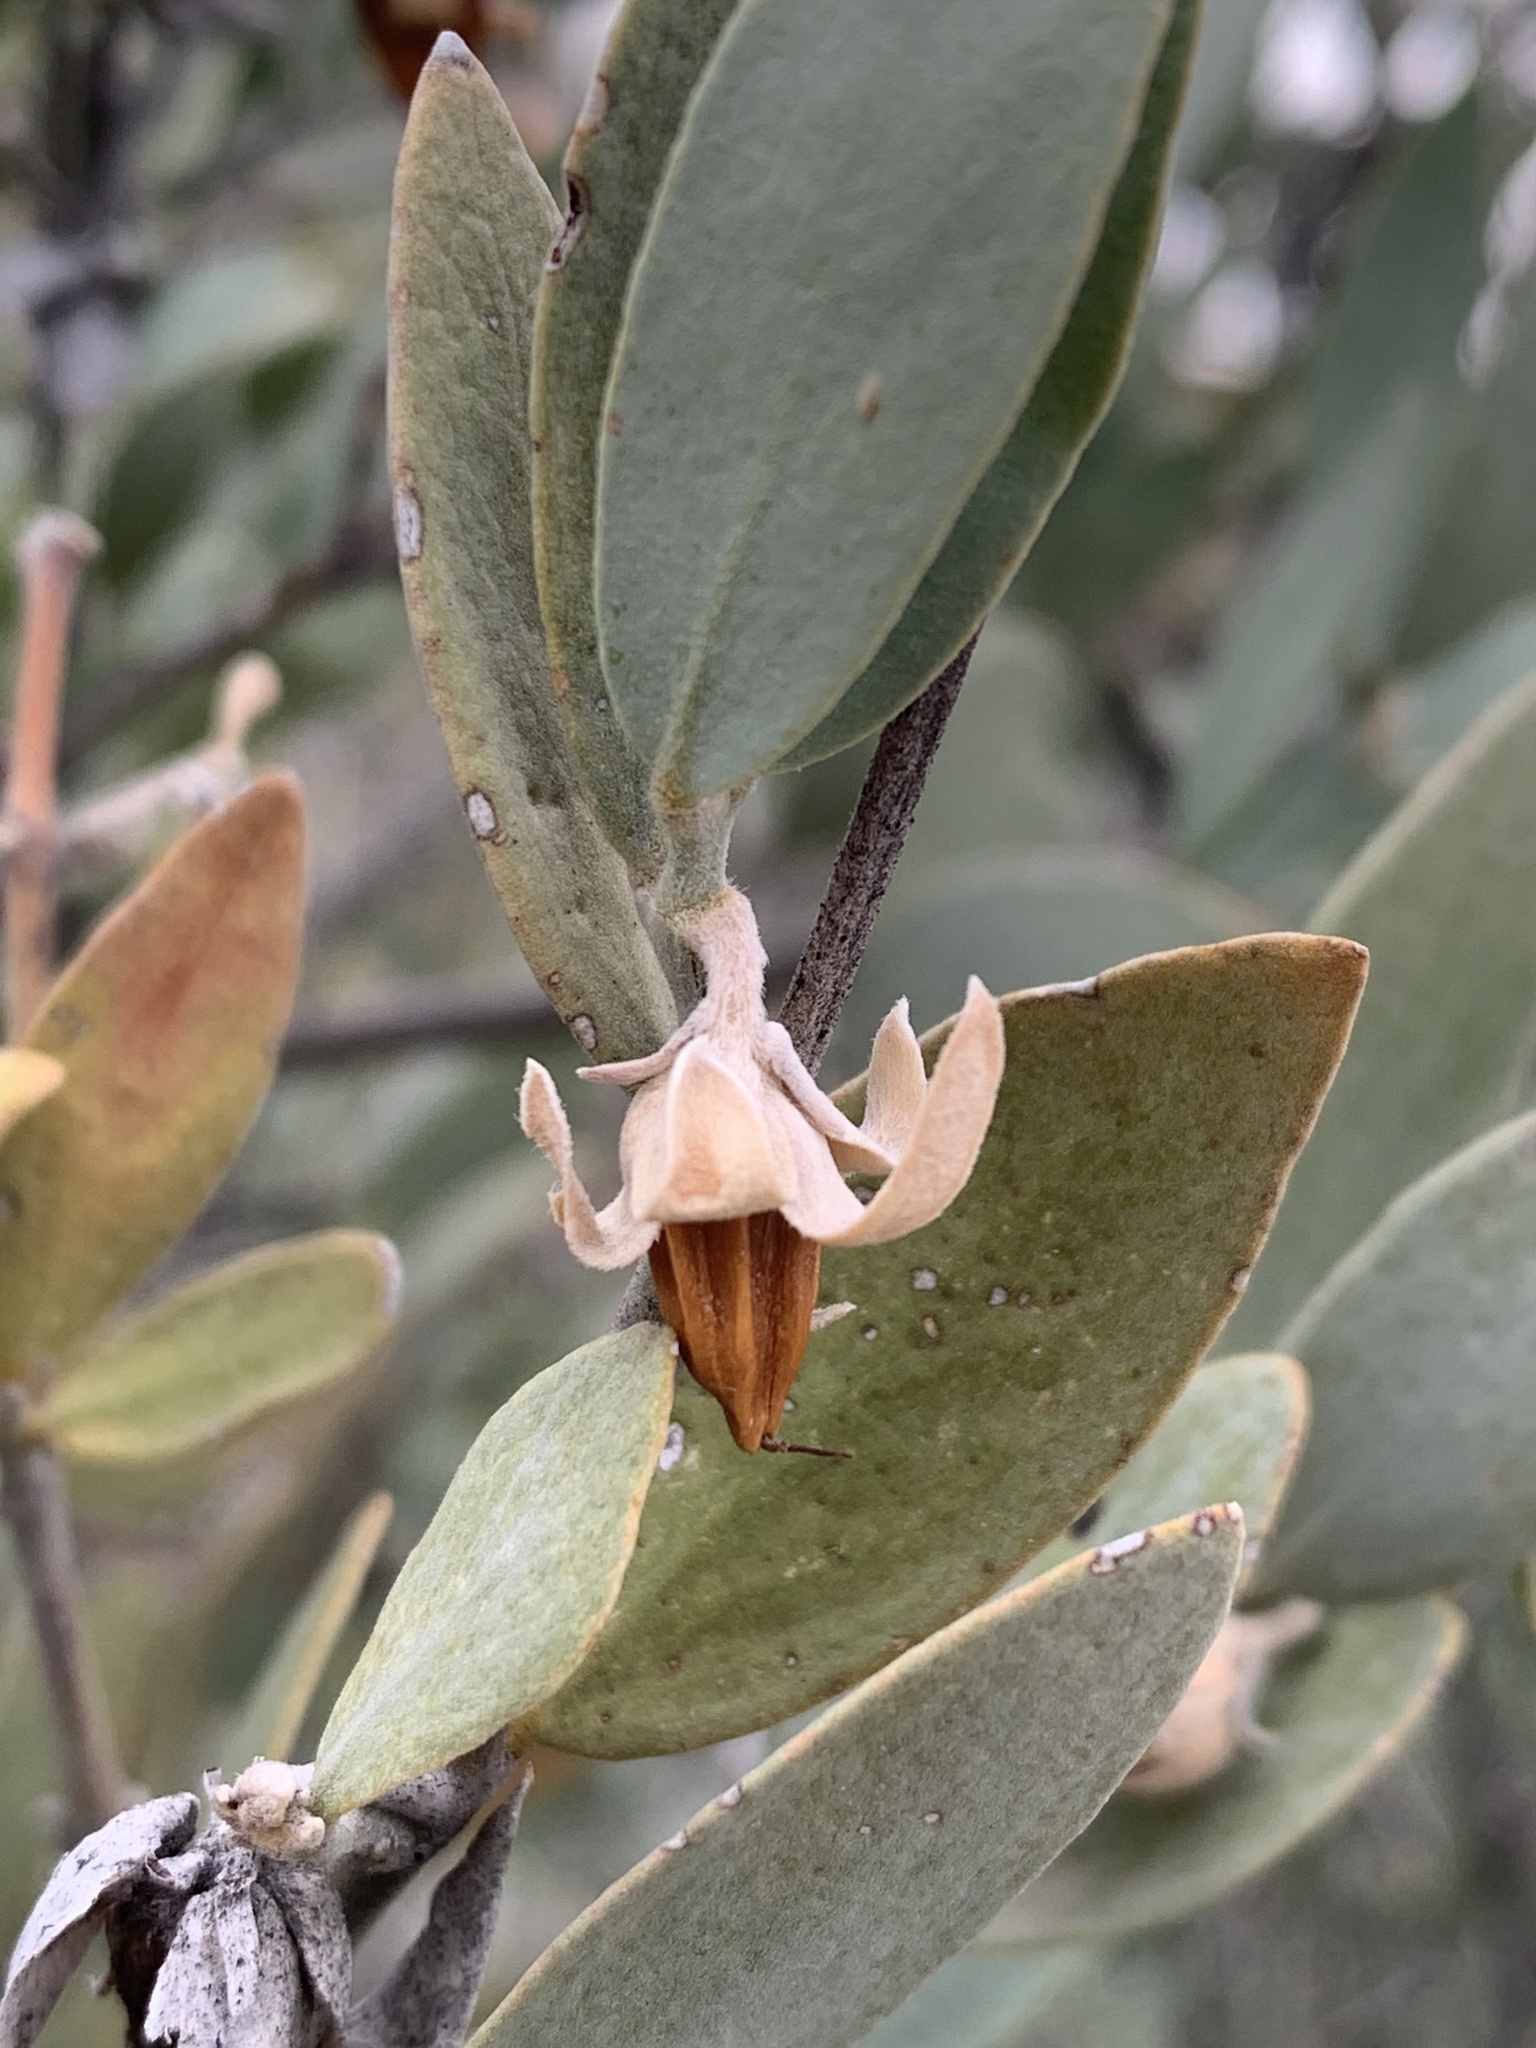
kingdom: Plantae
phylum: Tracheophyta
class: Magnoliopsida
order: Caryophyllales
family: Simmondsiaceae
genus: Simmondsia
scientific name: Simmondsia chinensis
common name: Jojoba
